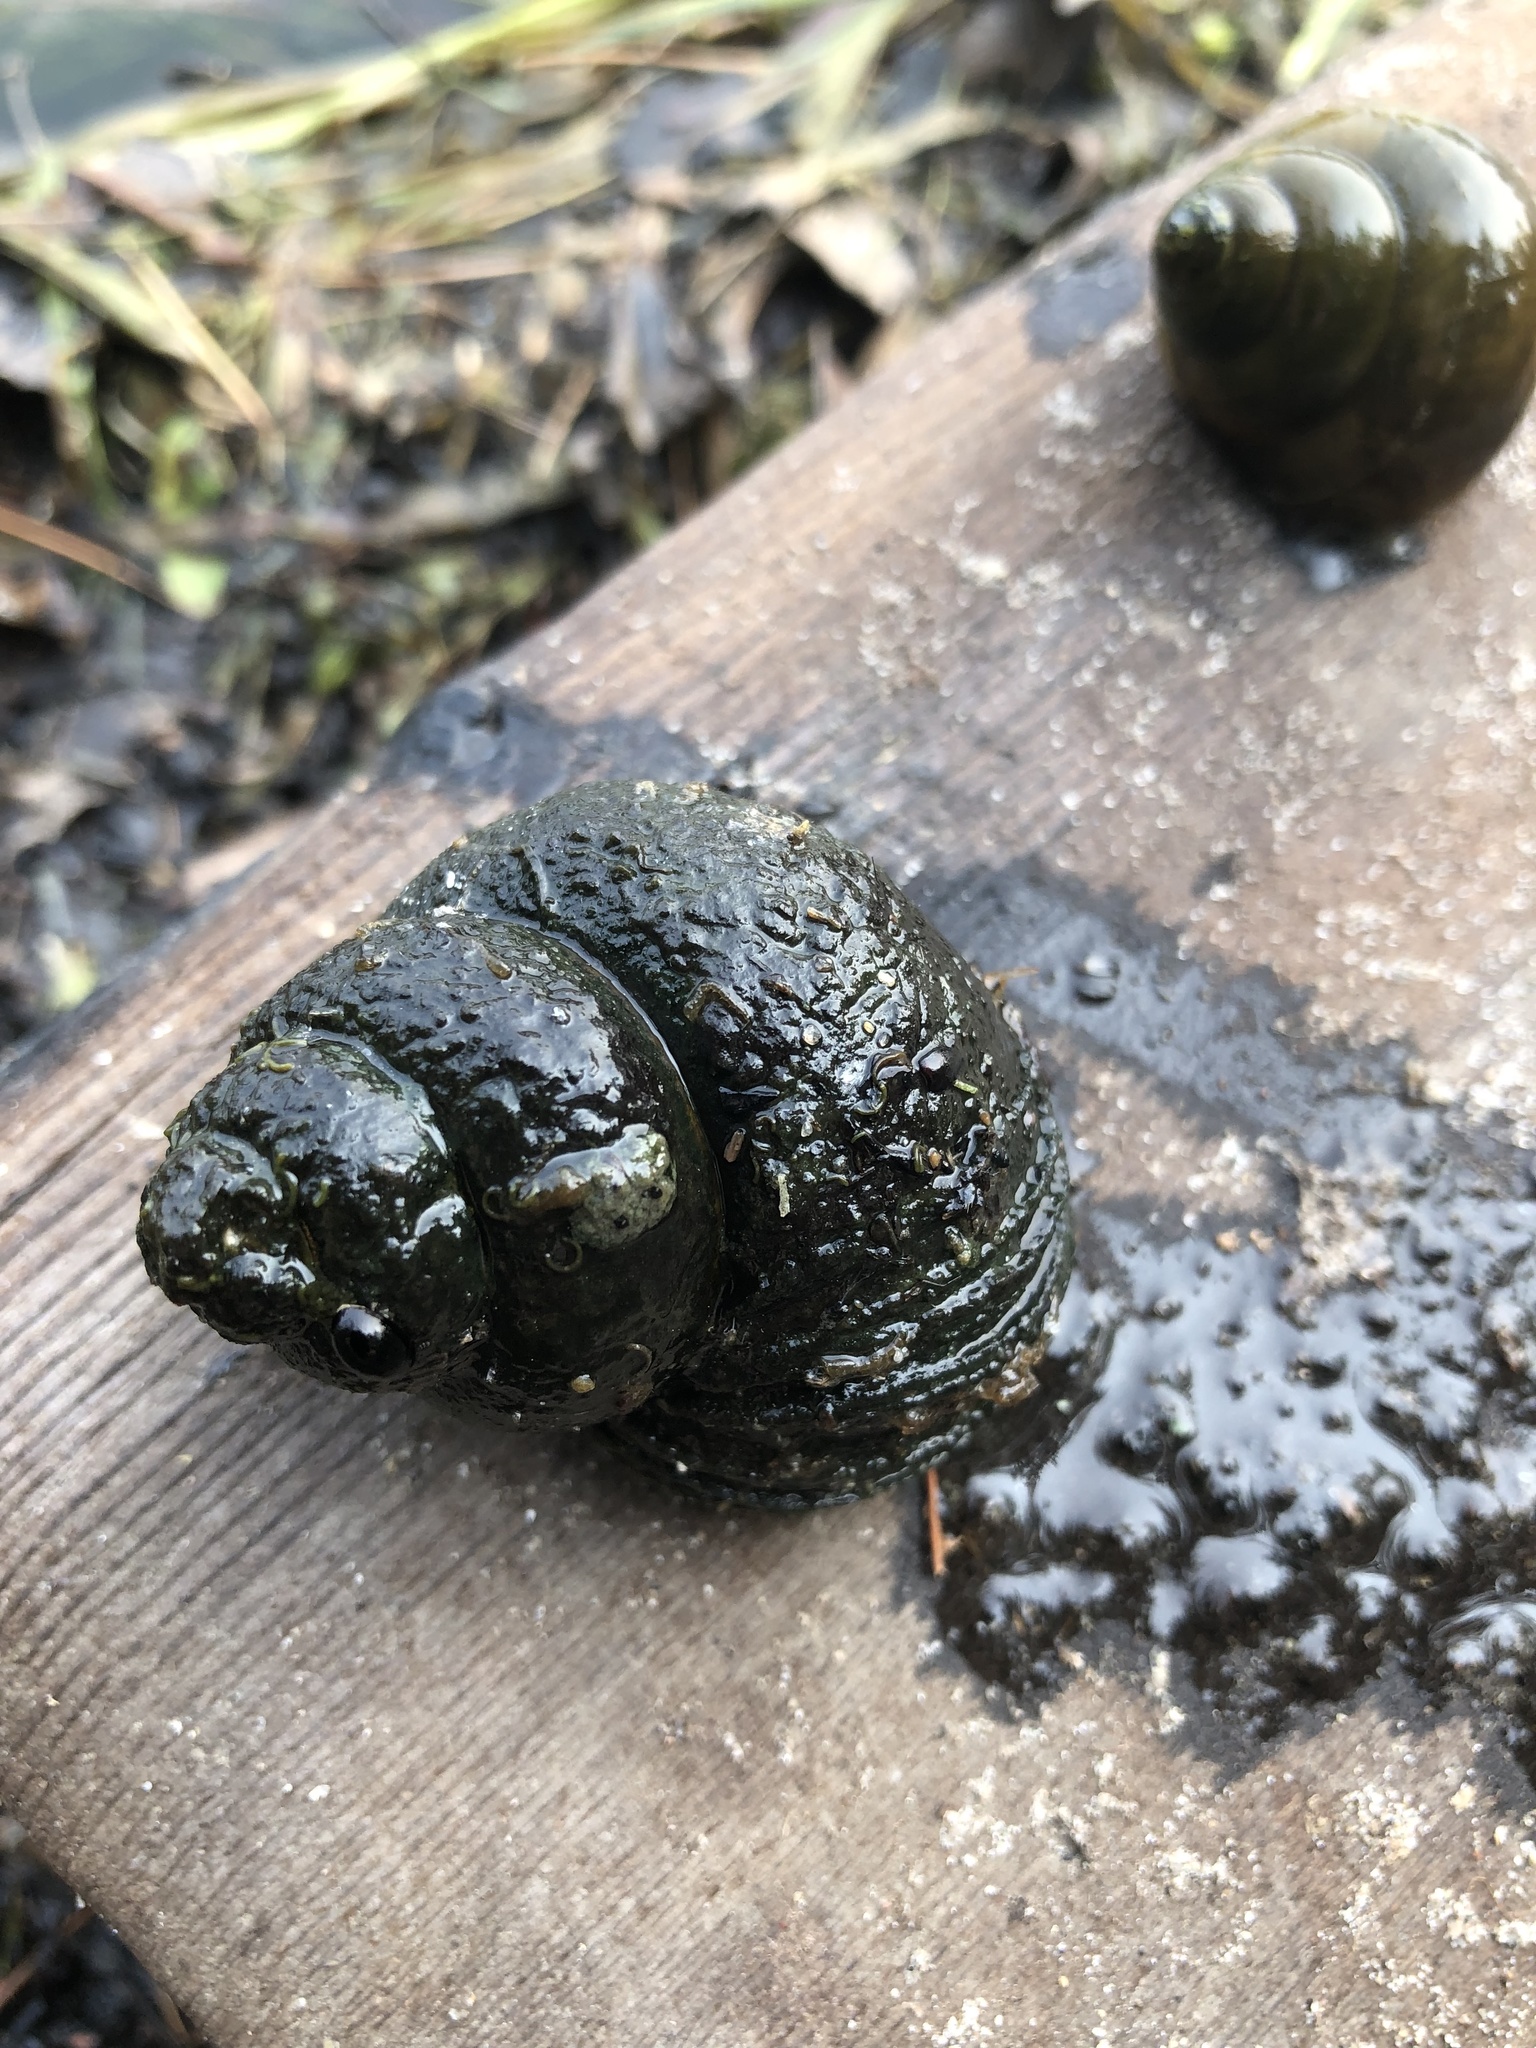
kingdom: Animalia
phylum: Mollusca
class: Gastropoda
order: Architaenioglossa
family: Viviparidae
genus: Cipangopaludina
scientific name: Cipangopaludina chinensis
